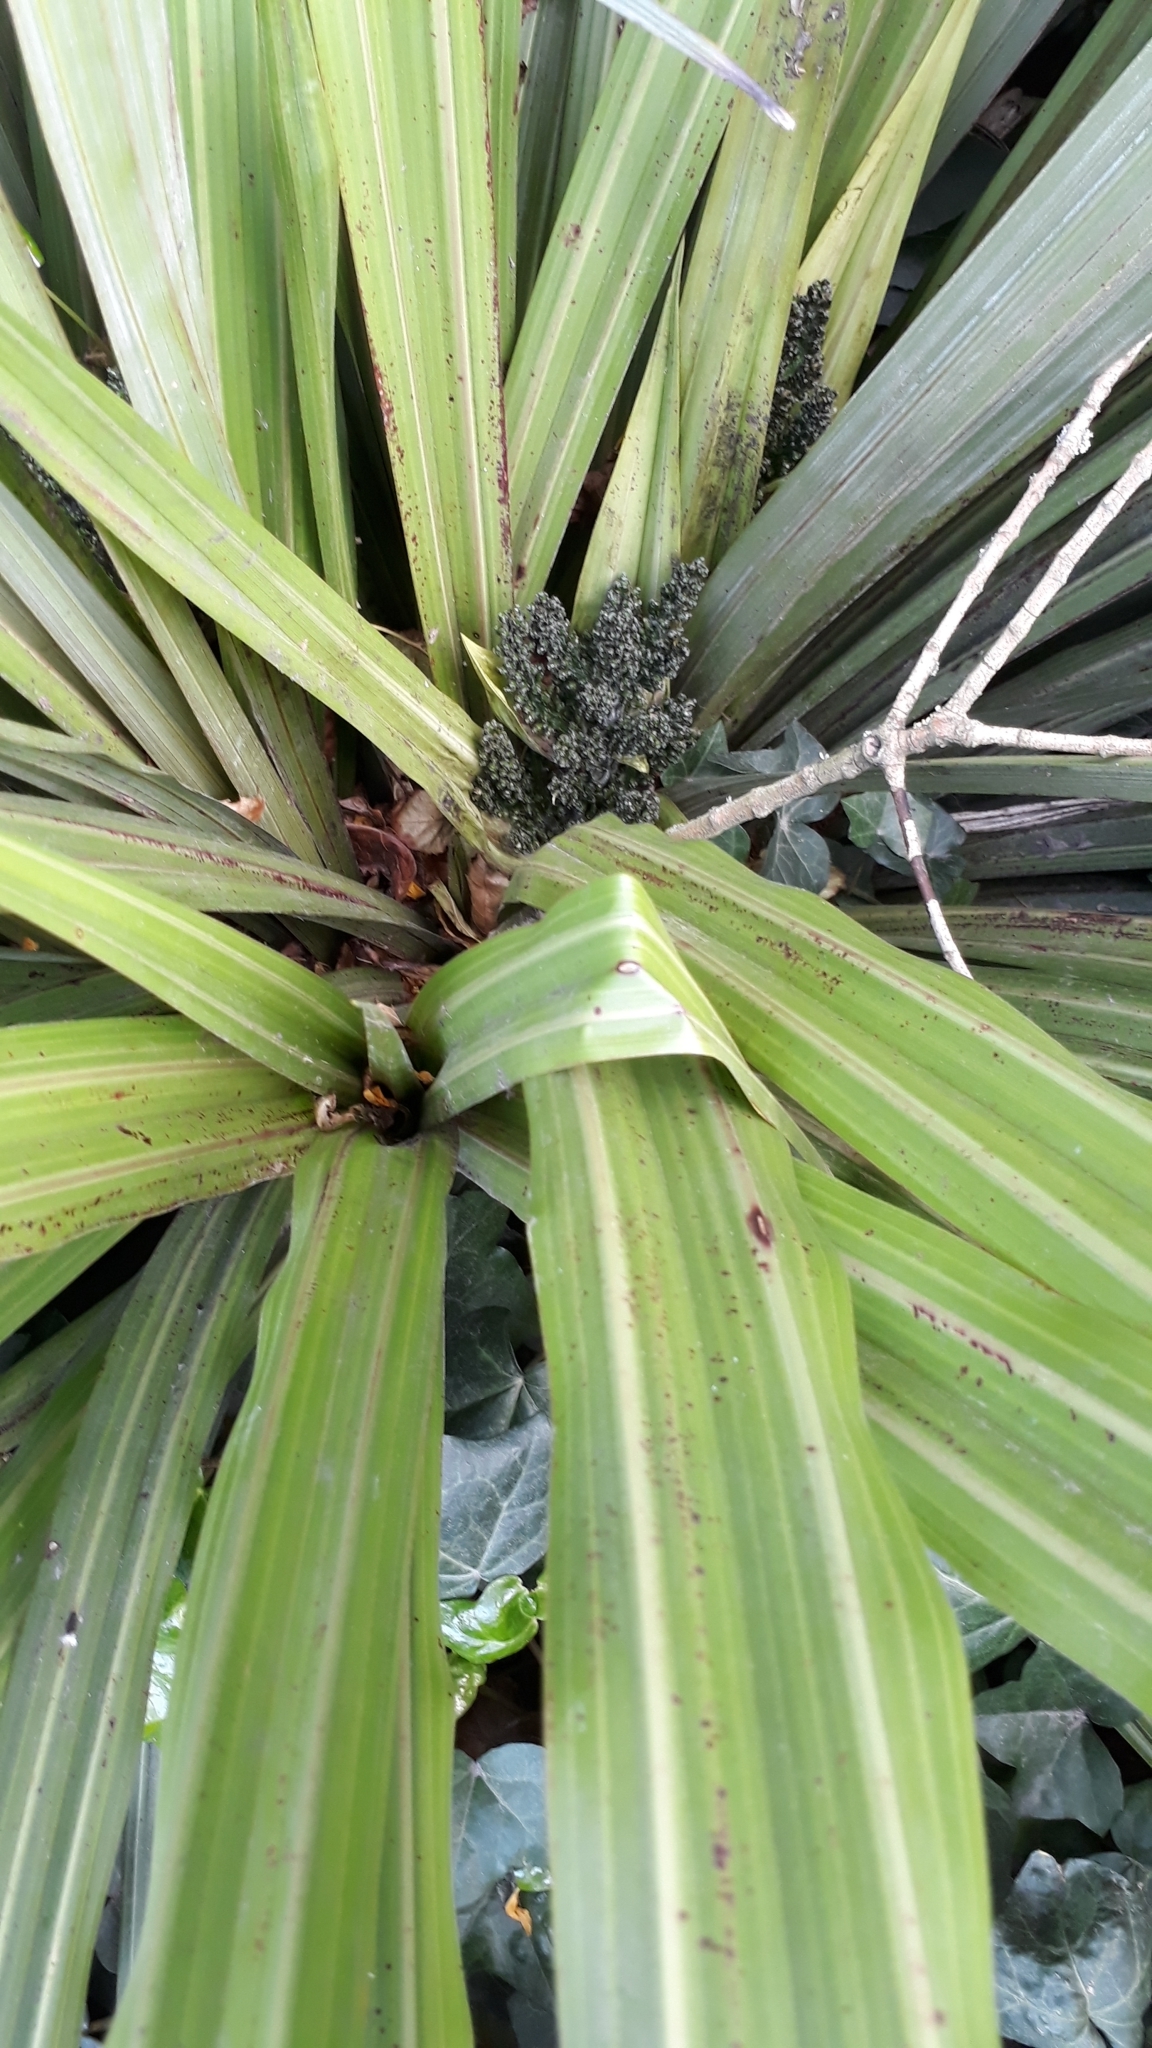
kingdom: Plantae
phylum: Tracheophyta
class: Liliopsida
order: Asparagales
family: Asteliaceae
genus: Astelia
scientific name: Astelia fragrans
